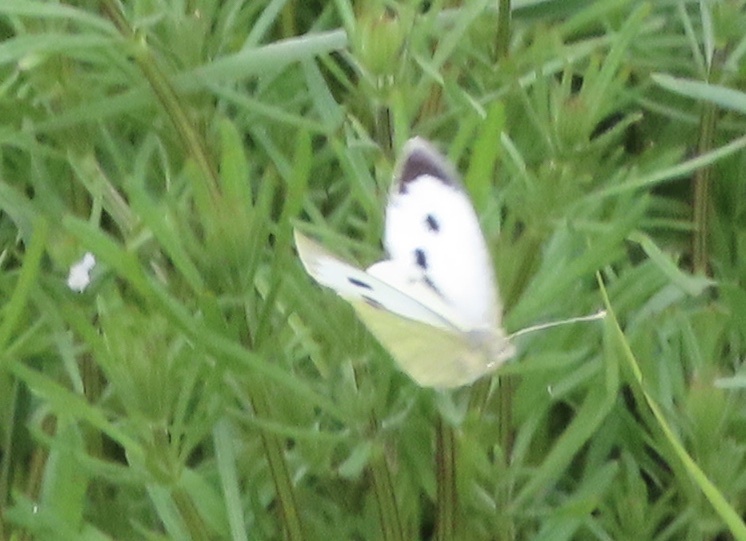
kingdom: Animalia
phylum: Arthropoda
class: Insecta
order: Lepidoptera
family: Pieridae
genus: Pieris
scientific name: Pieris brassicae
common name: Large white
